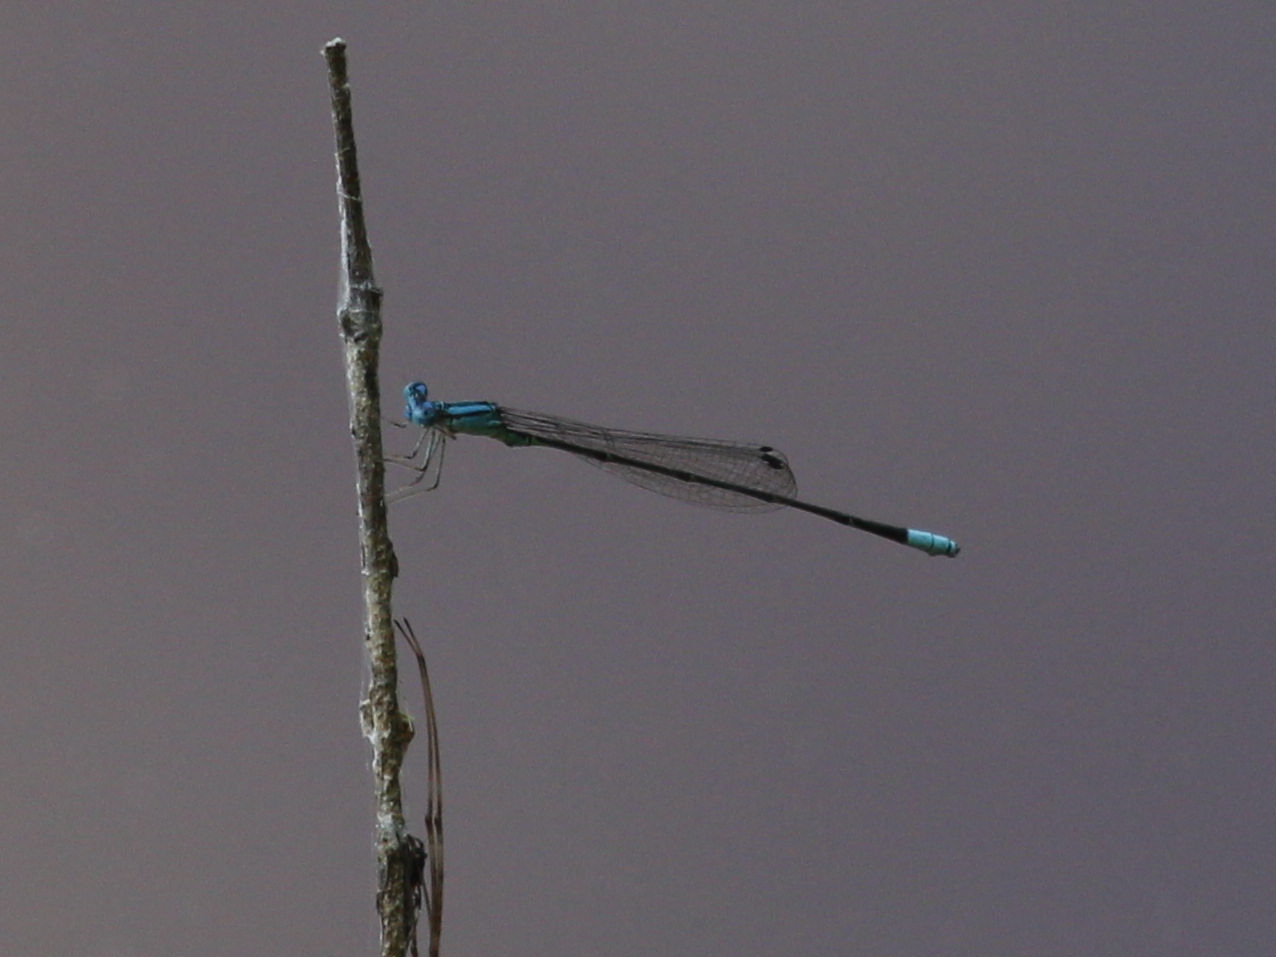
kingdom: Animalia
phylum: Arthropoda
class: Insecta
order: Odonata
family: Coenagrionidae
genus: Enallagma
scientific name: Enallagma divagans
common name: Turquoise bluet
